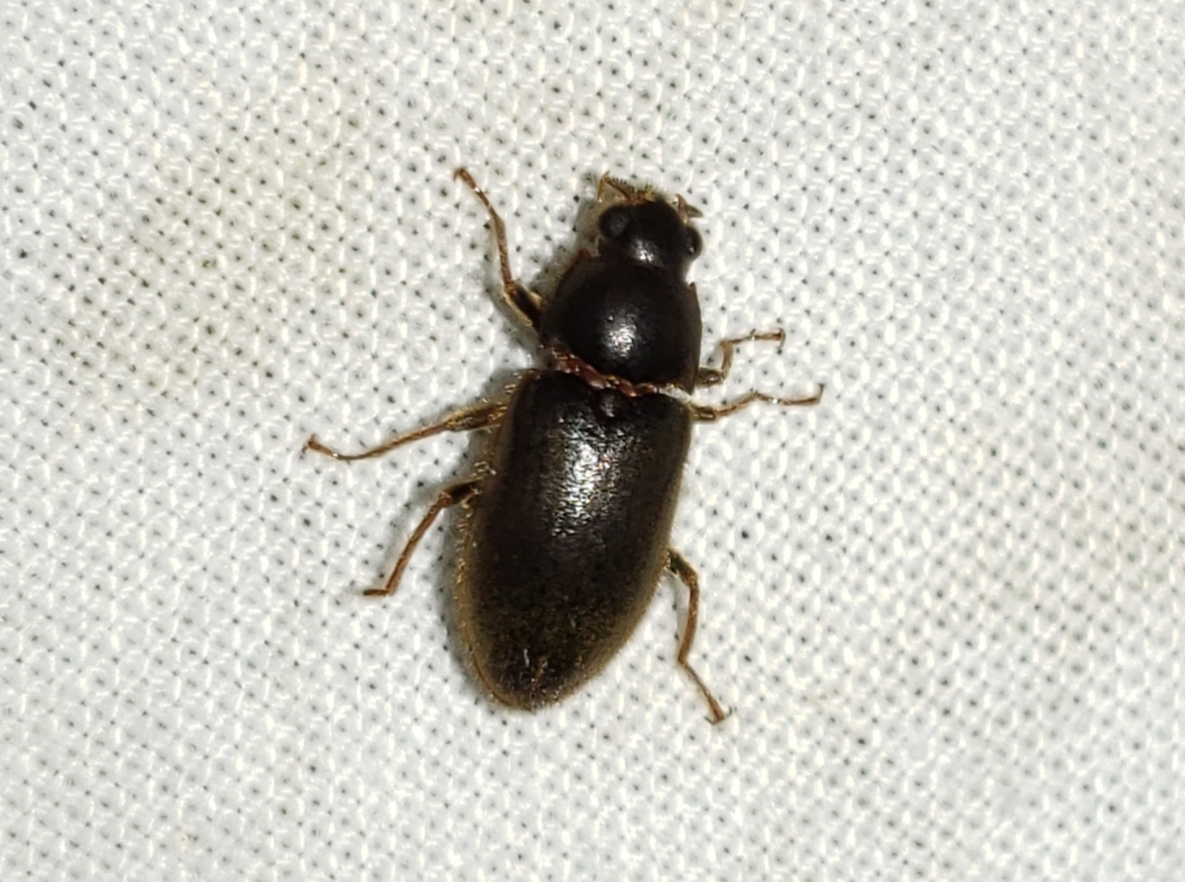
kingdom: Animalia
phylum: Arthropoda
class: Insecta
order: Coleoptera
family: Dryopidae
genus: Pelonomus
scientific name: Pelonomus obscurus
